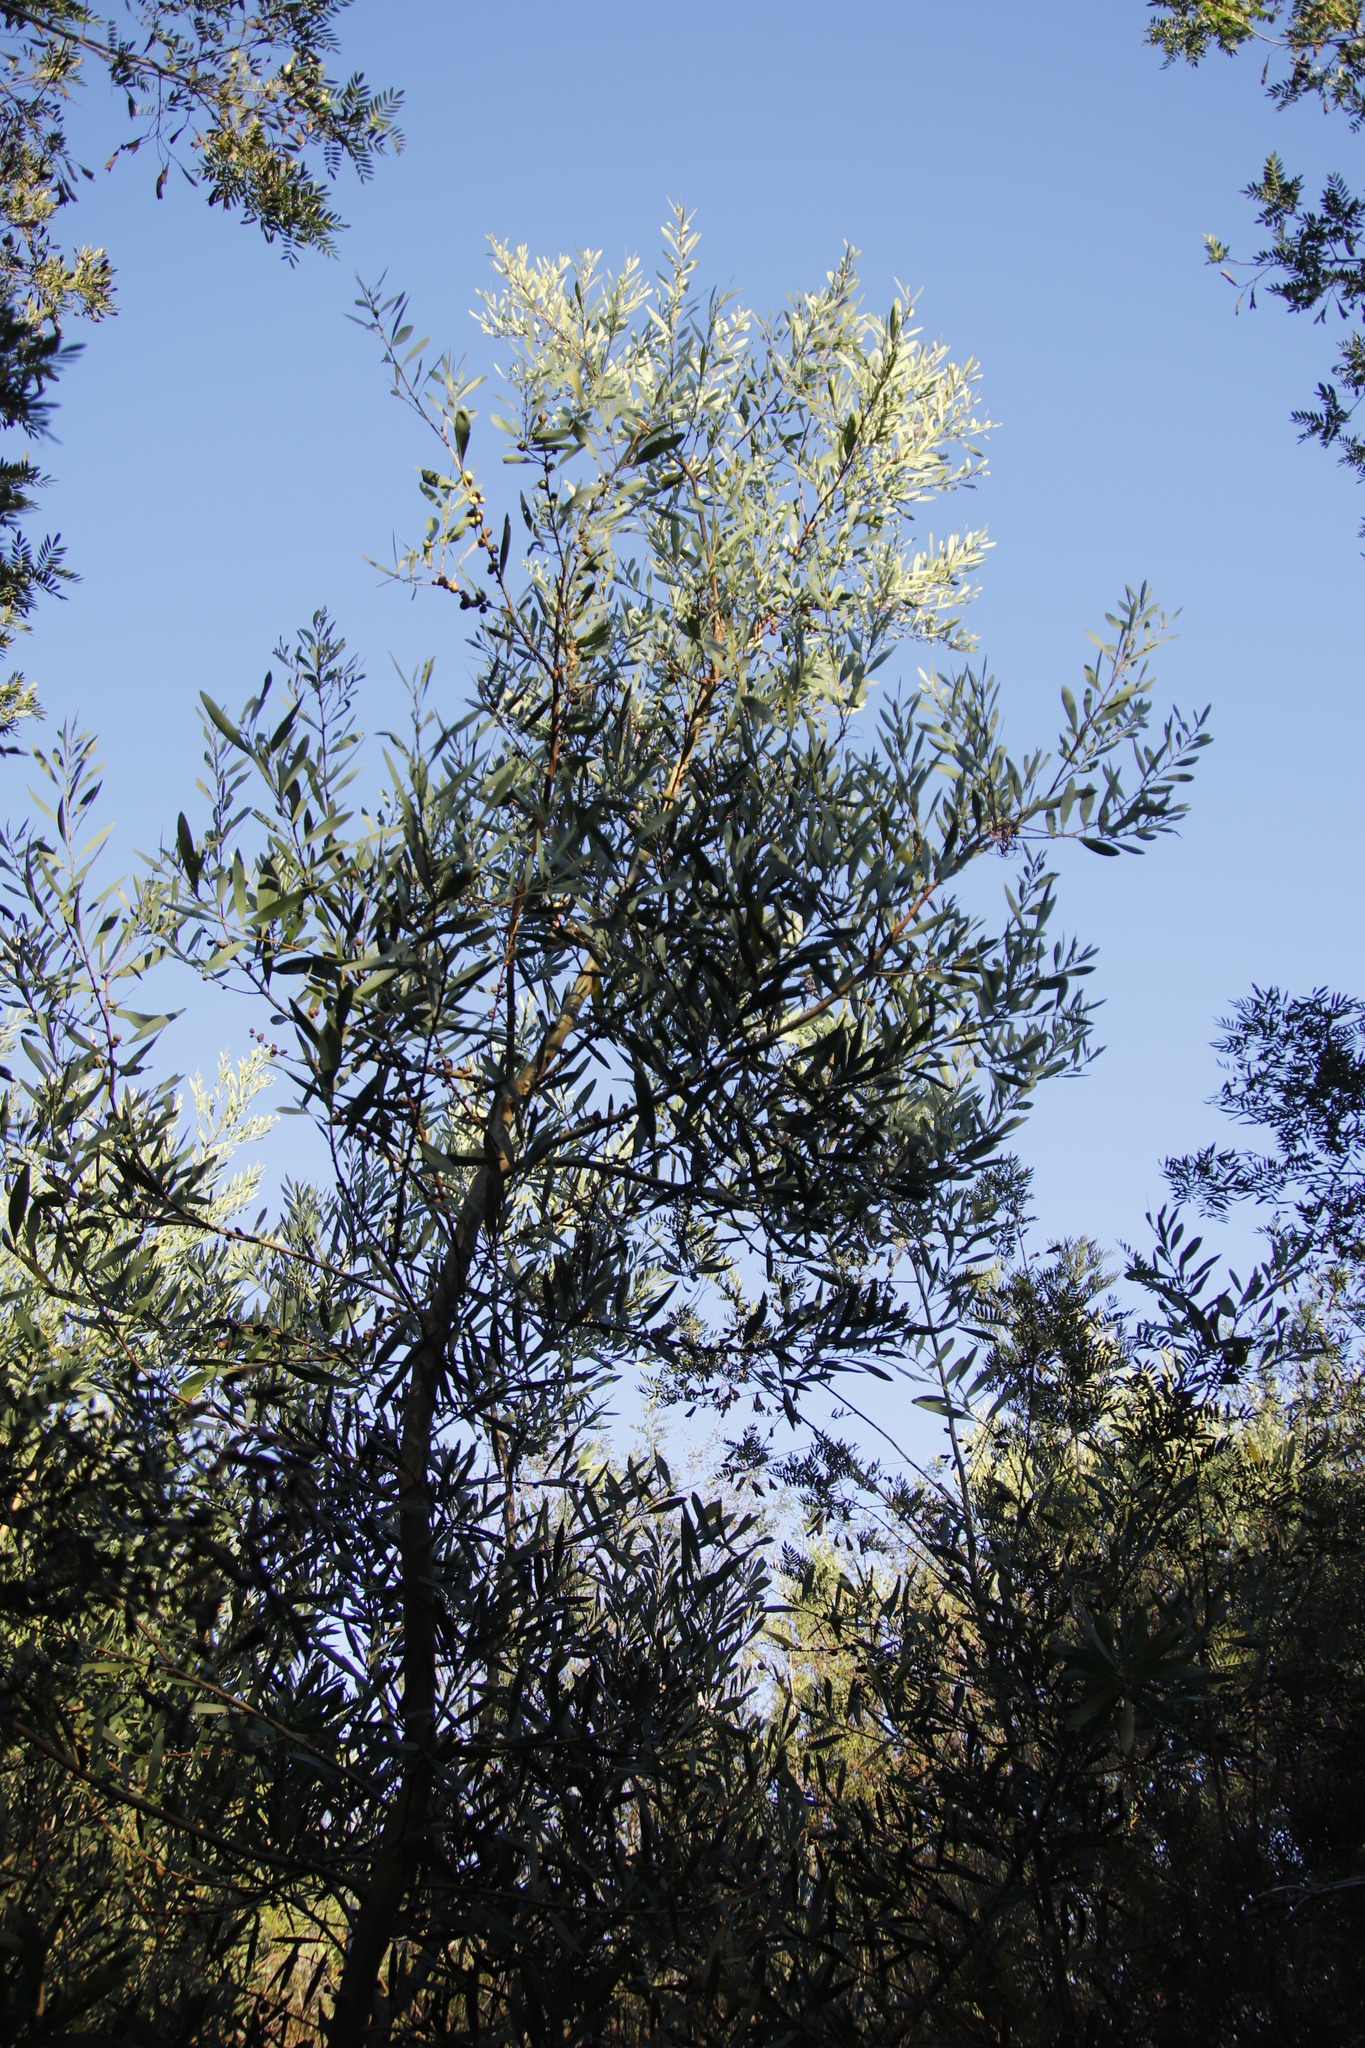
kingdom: Plantae
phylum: Tracheophyta
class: Magnoliopsida
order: Fabales
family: Fabaceae
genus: Acacia
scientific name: Acacia longifolia
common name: Sydney golden wattle
